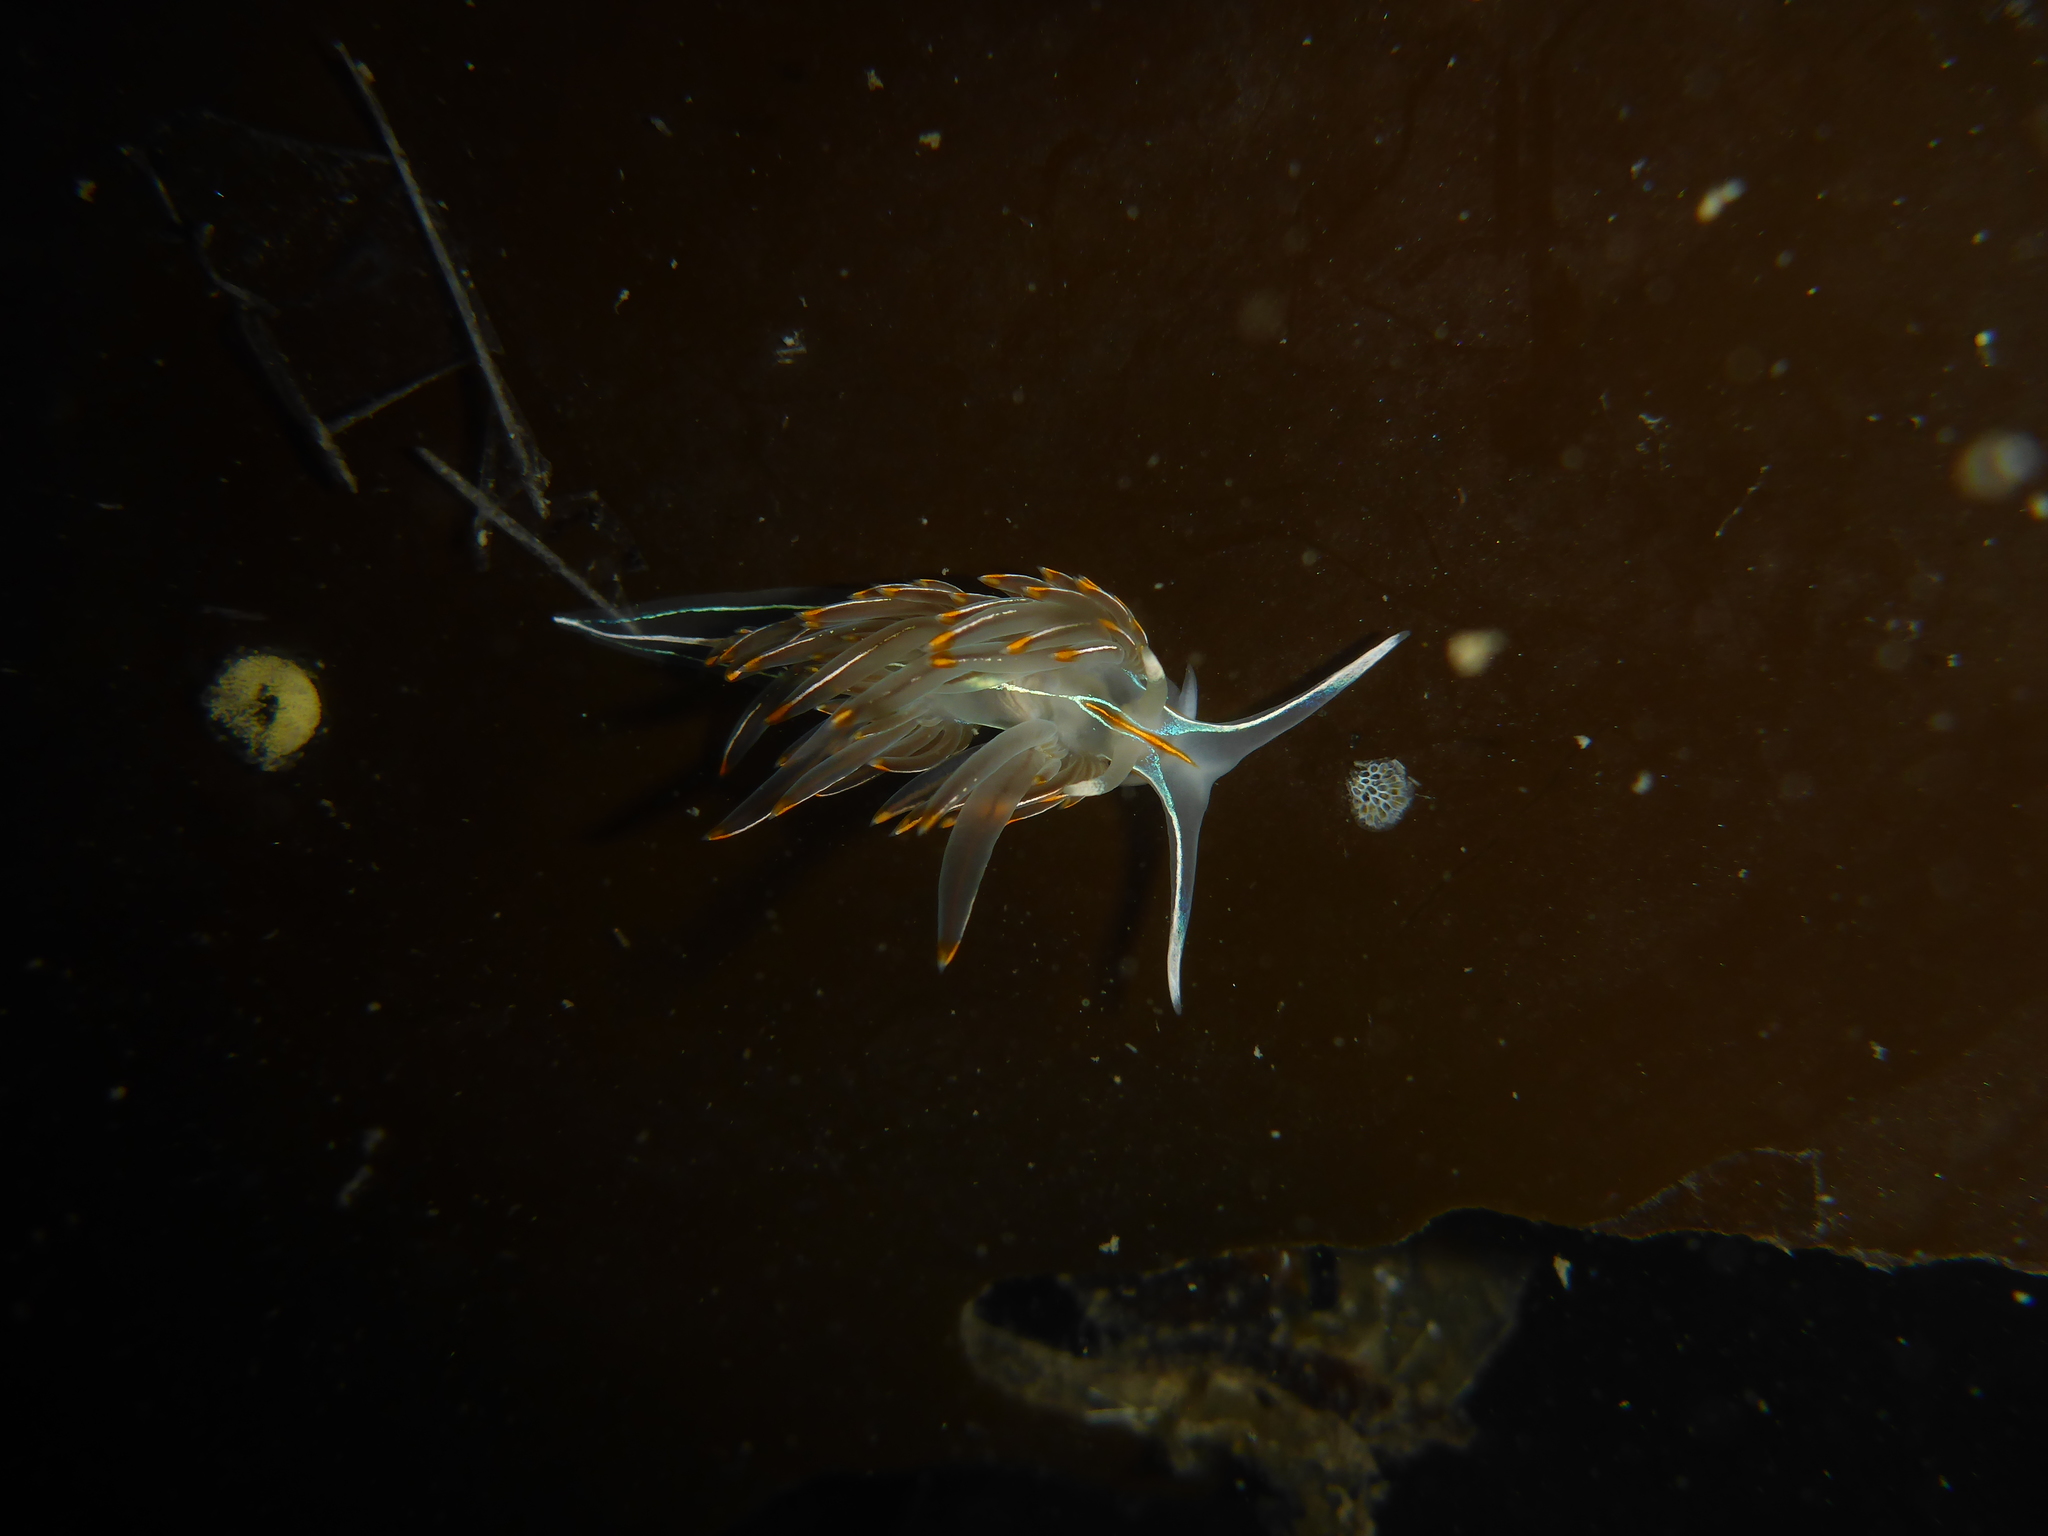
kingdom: Animalia
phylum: Mollusca
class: Gastropoda
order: Nudibranchia
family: Myrrhinidae
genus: Hermissenda
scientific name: Hermissenda crassicornis
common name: Hermissenda
